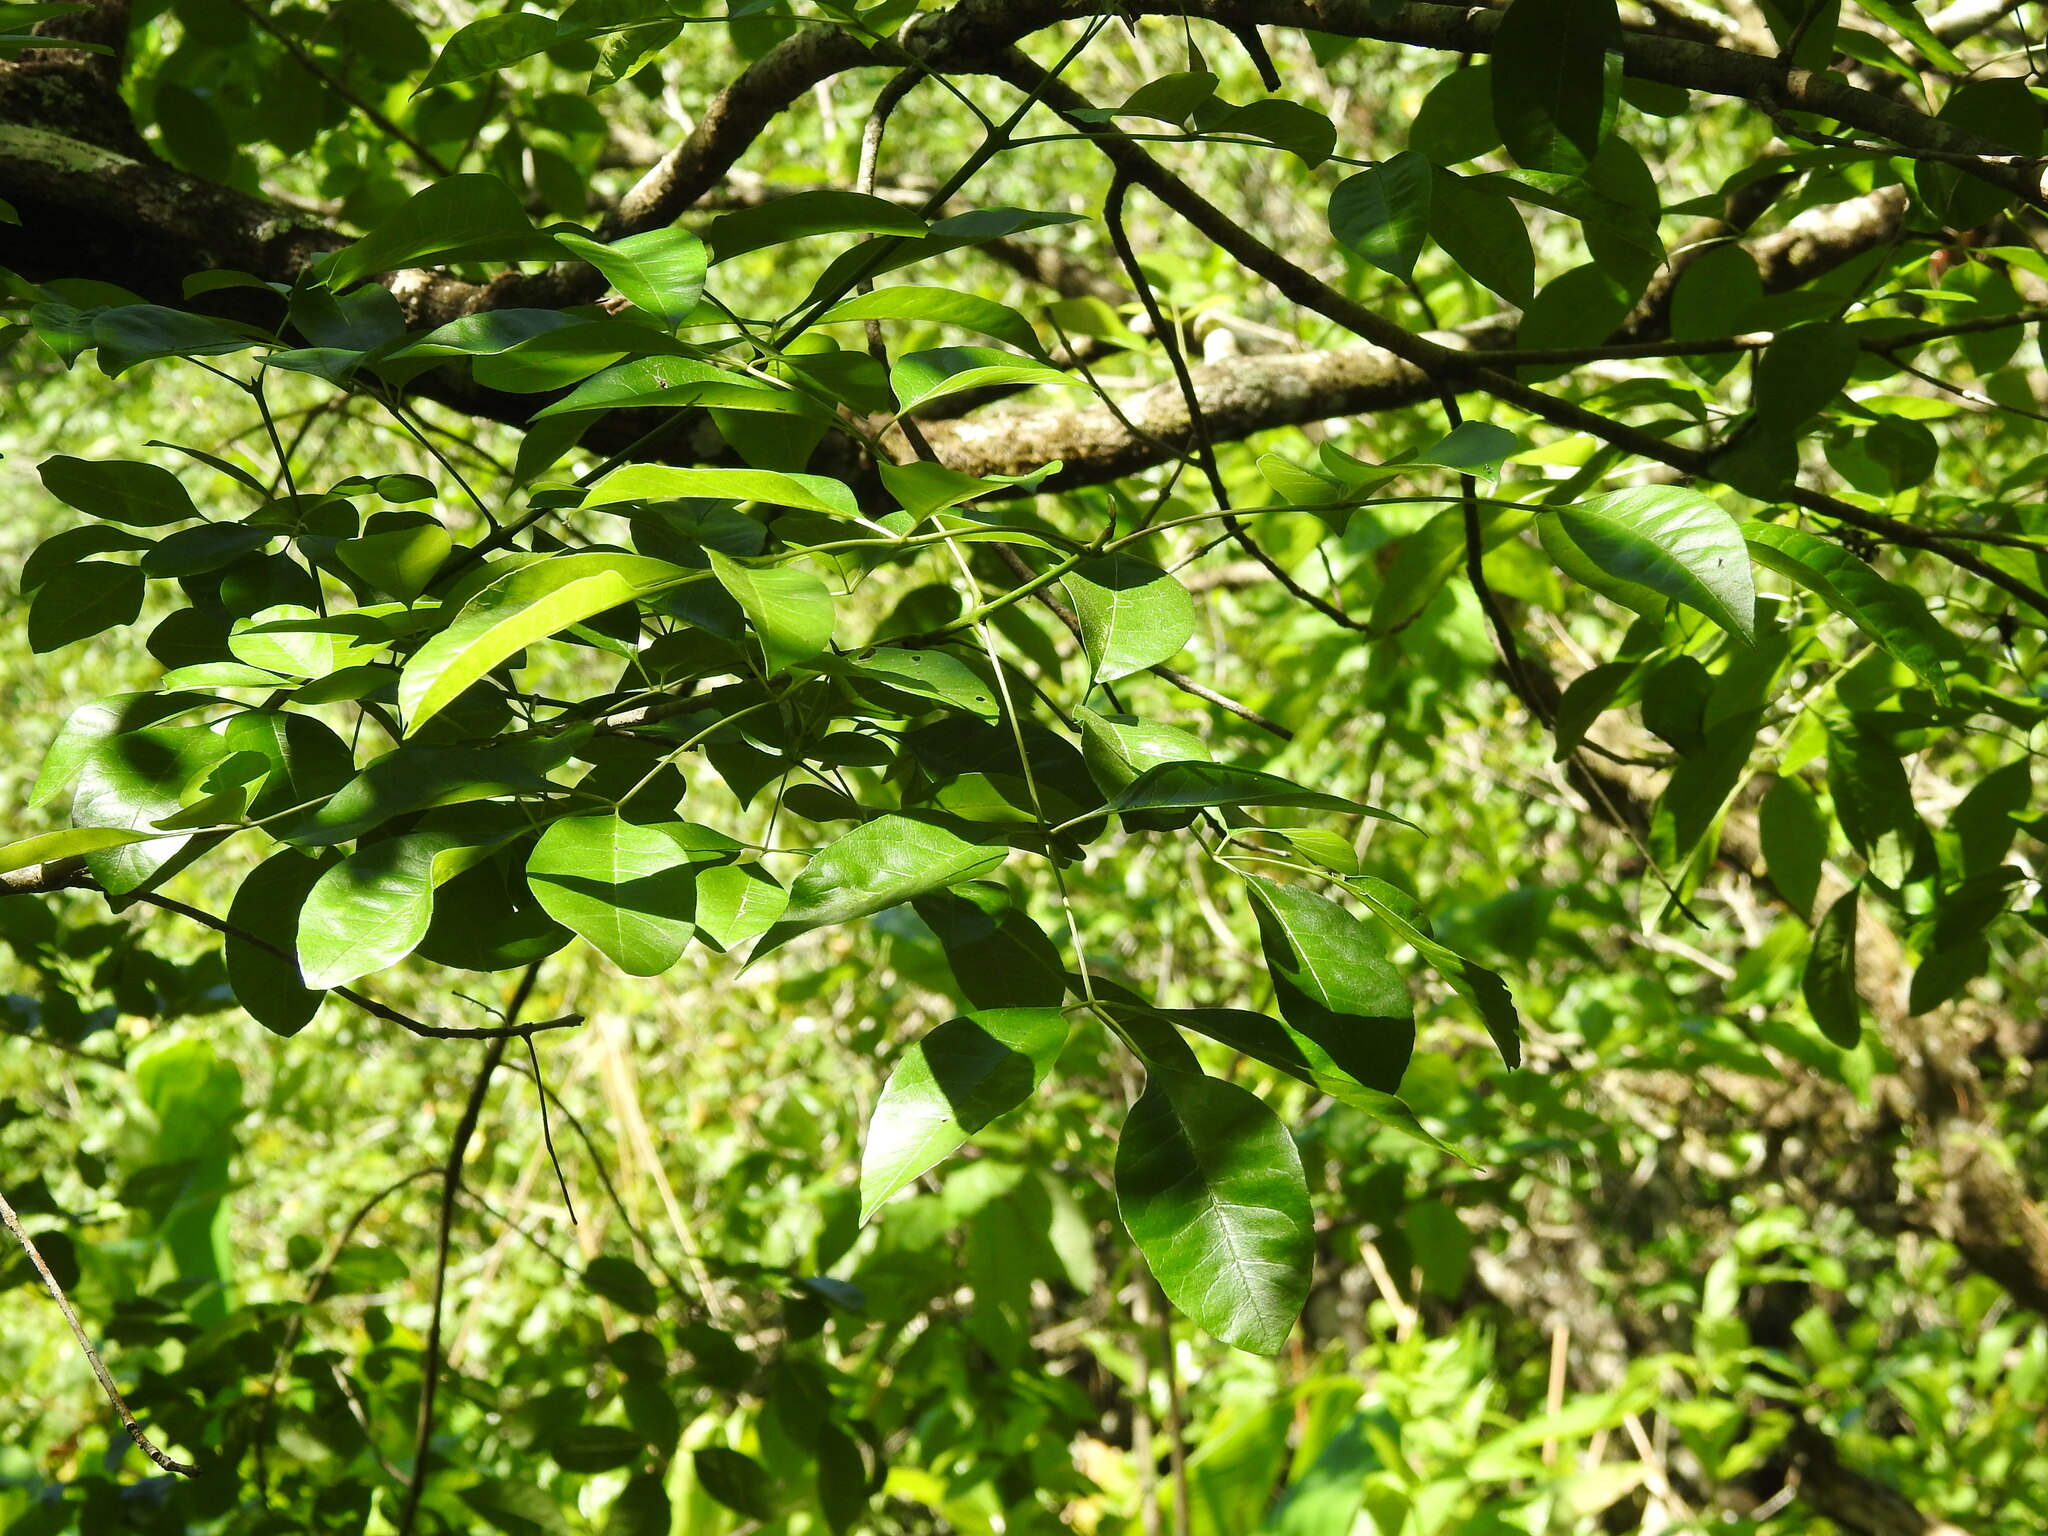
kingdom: Plantae
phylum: Tracheophyta
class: Magnoliopsida
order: Lamiales
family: Oleaceae
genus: Fraxinus
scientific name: Fraxinus caroliniana
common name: Carolina ash
